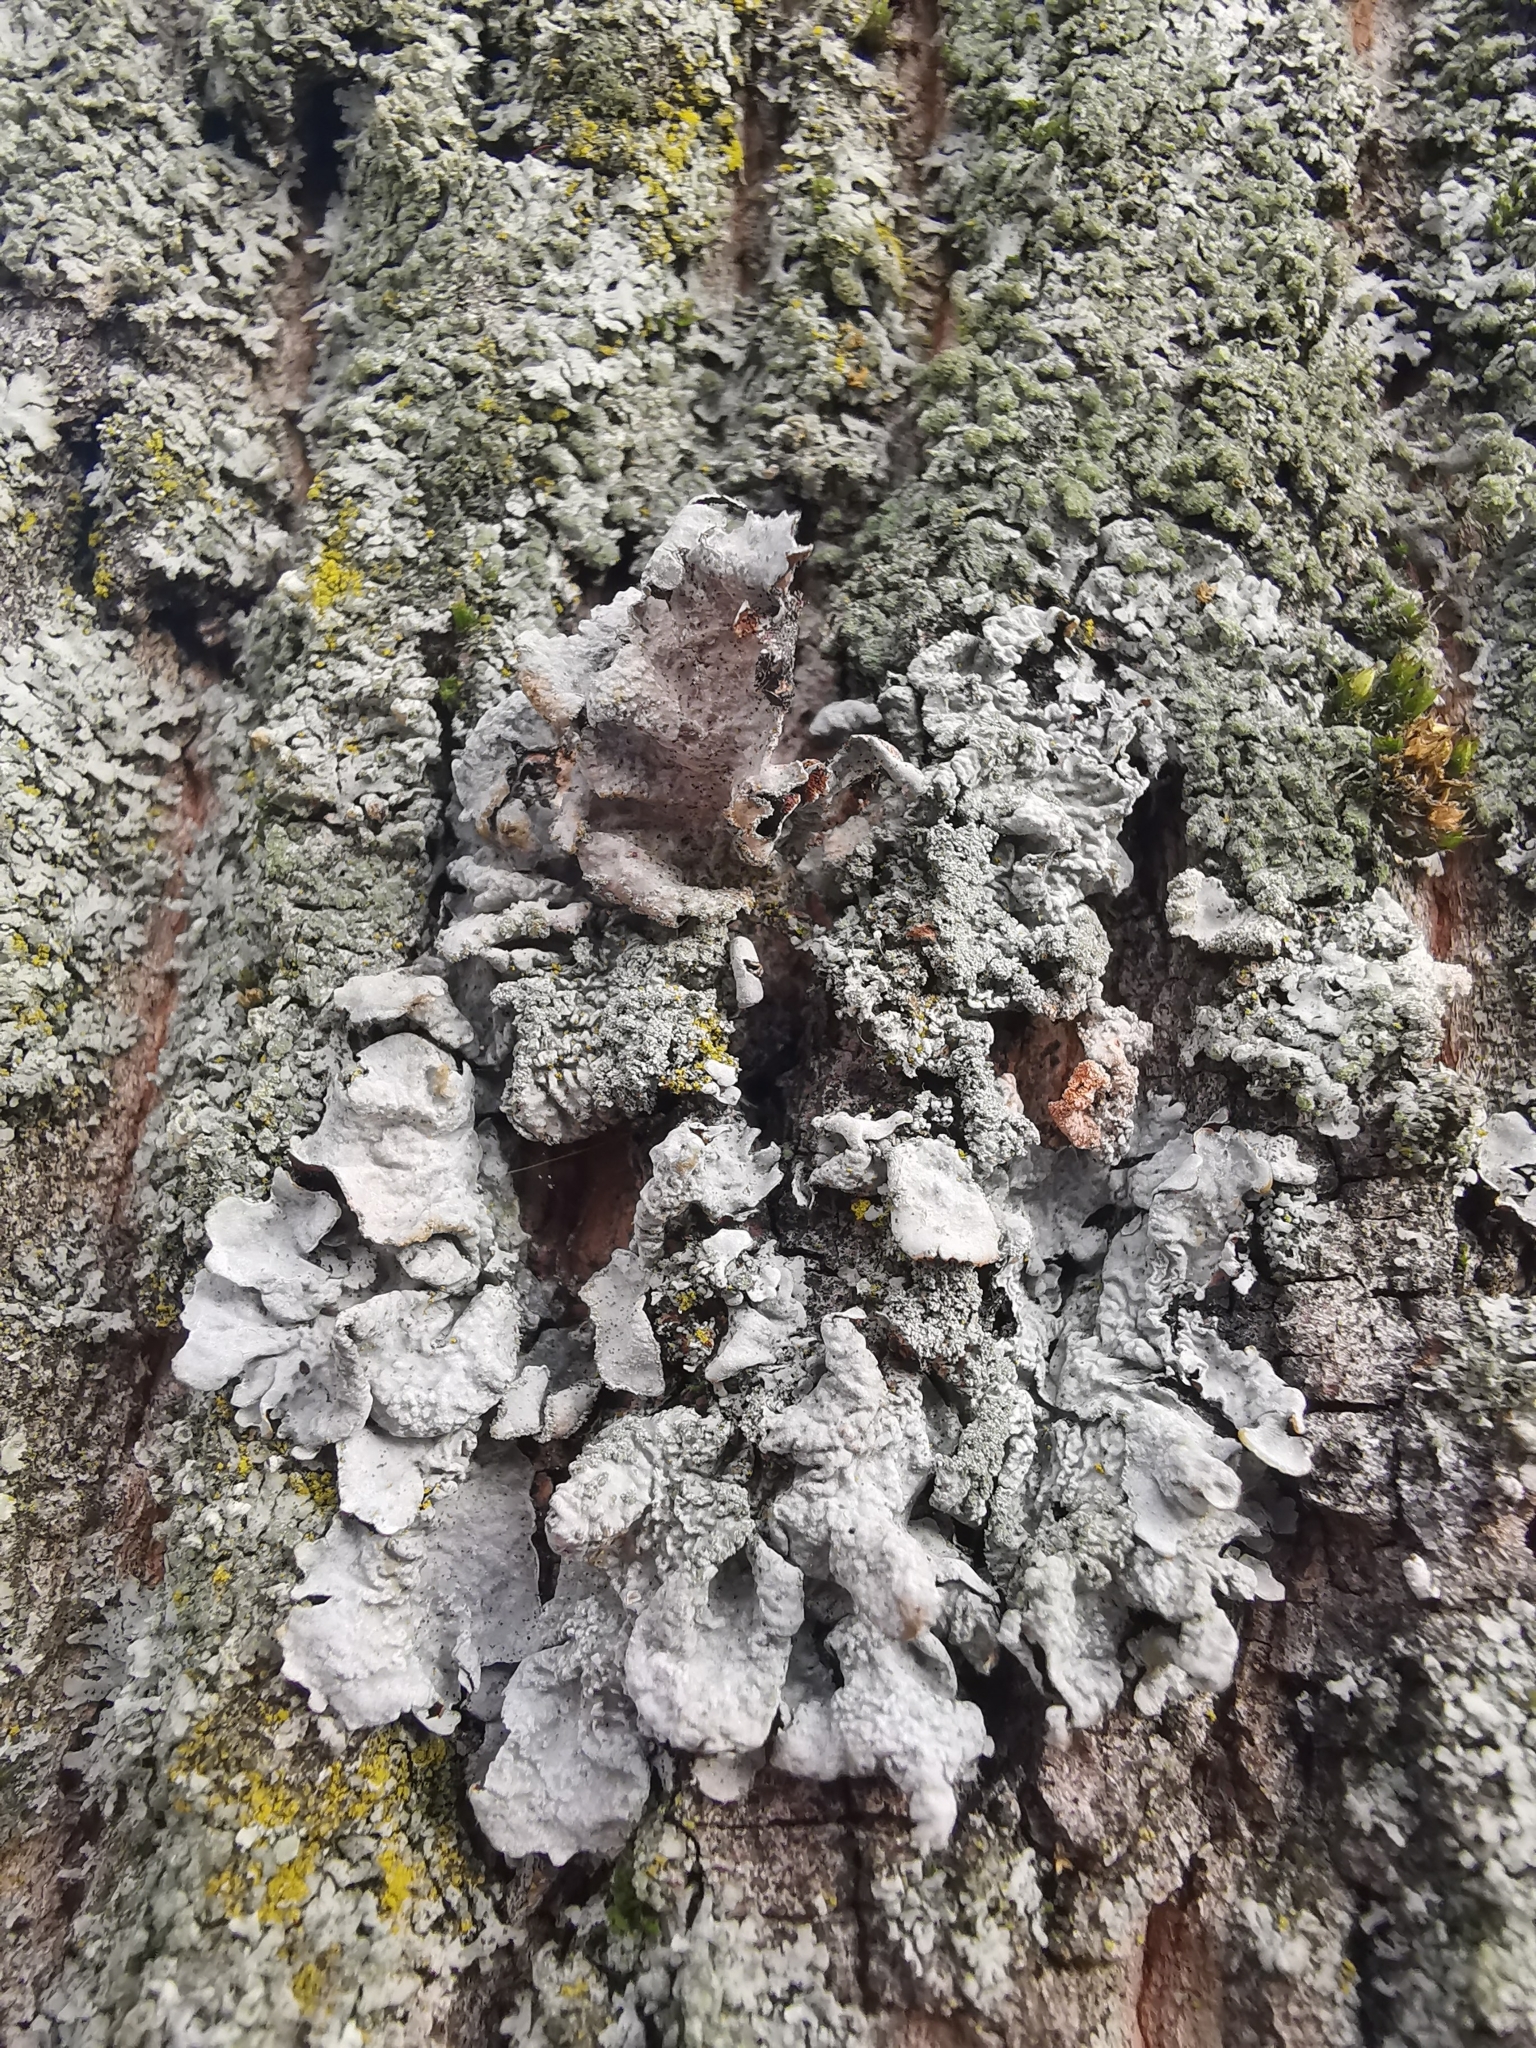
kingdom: Fungi
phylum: Ascomycota
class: Lecanoromycetes
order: Lecanorales
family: Parmeliaceae
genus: Parmelia
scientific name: Parmelia sulcata
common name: Netted shield lichen
